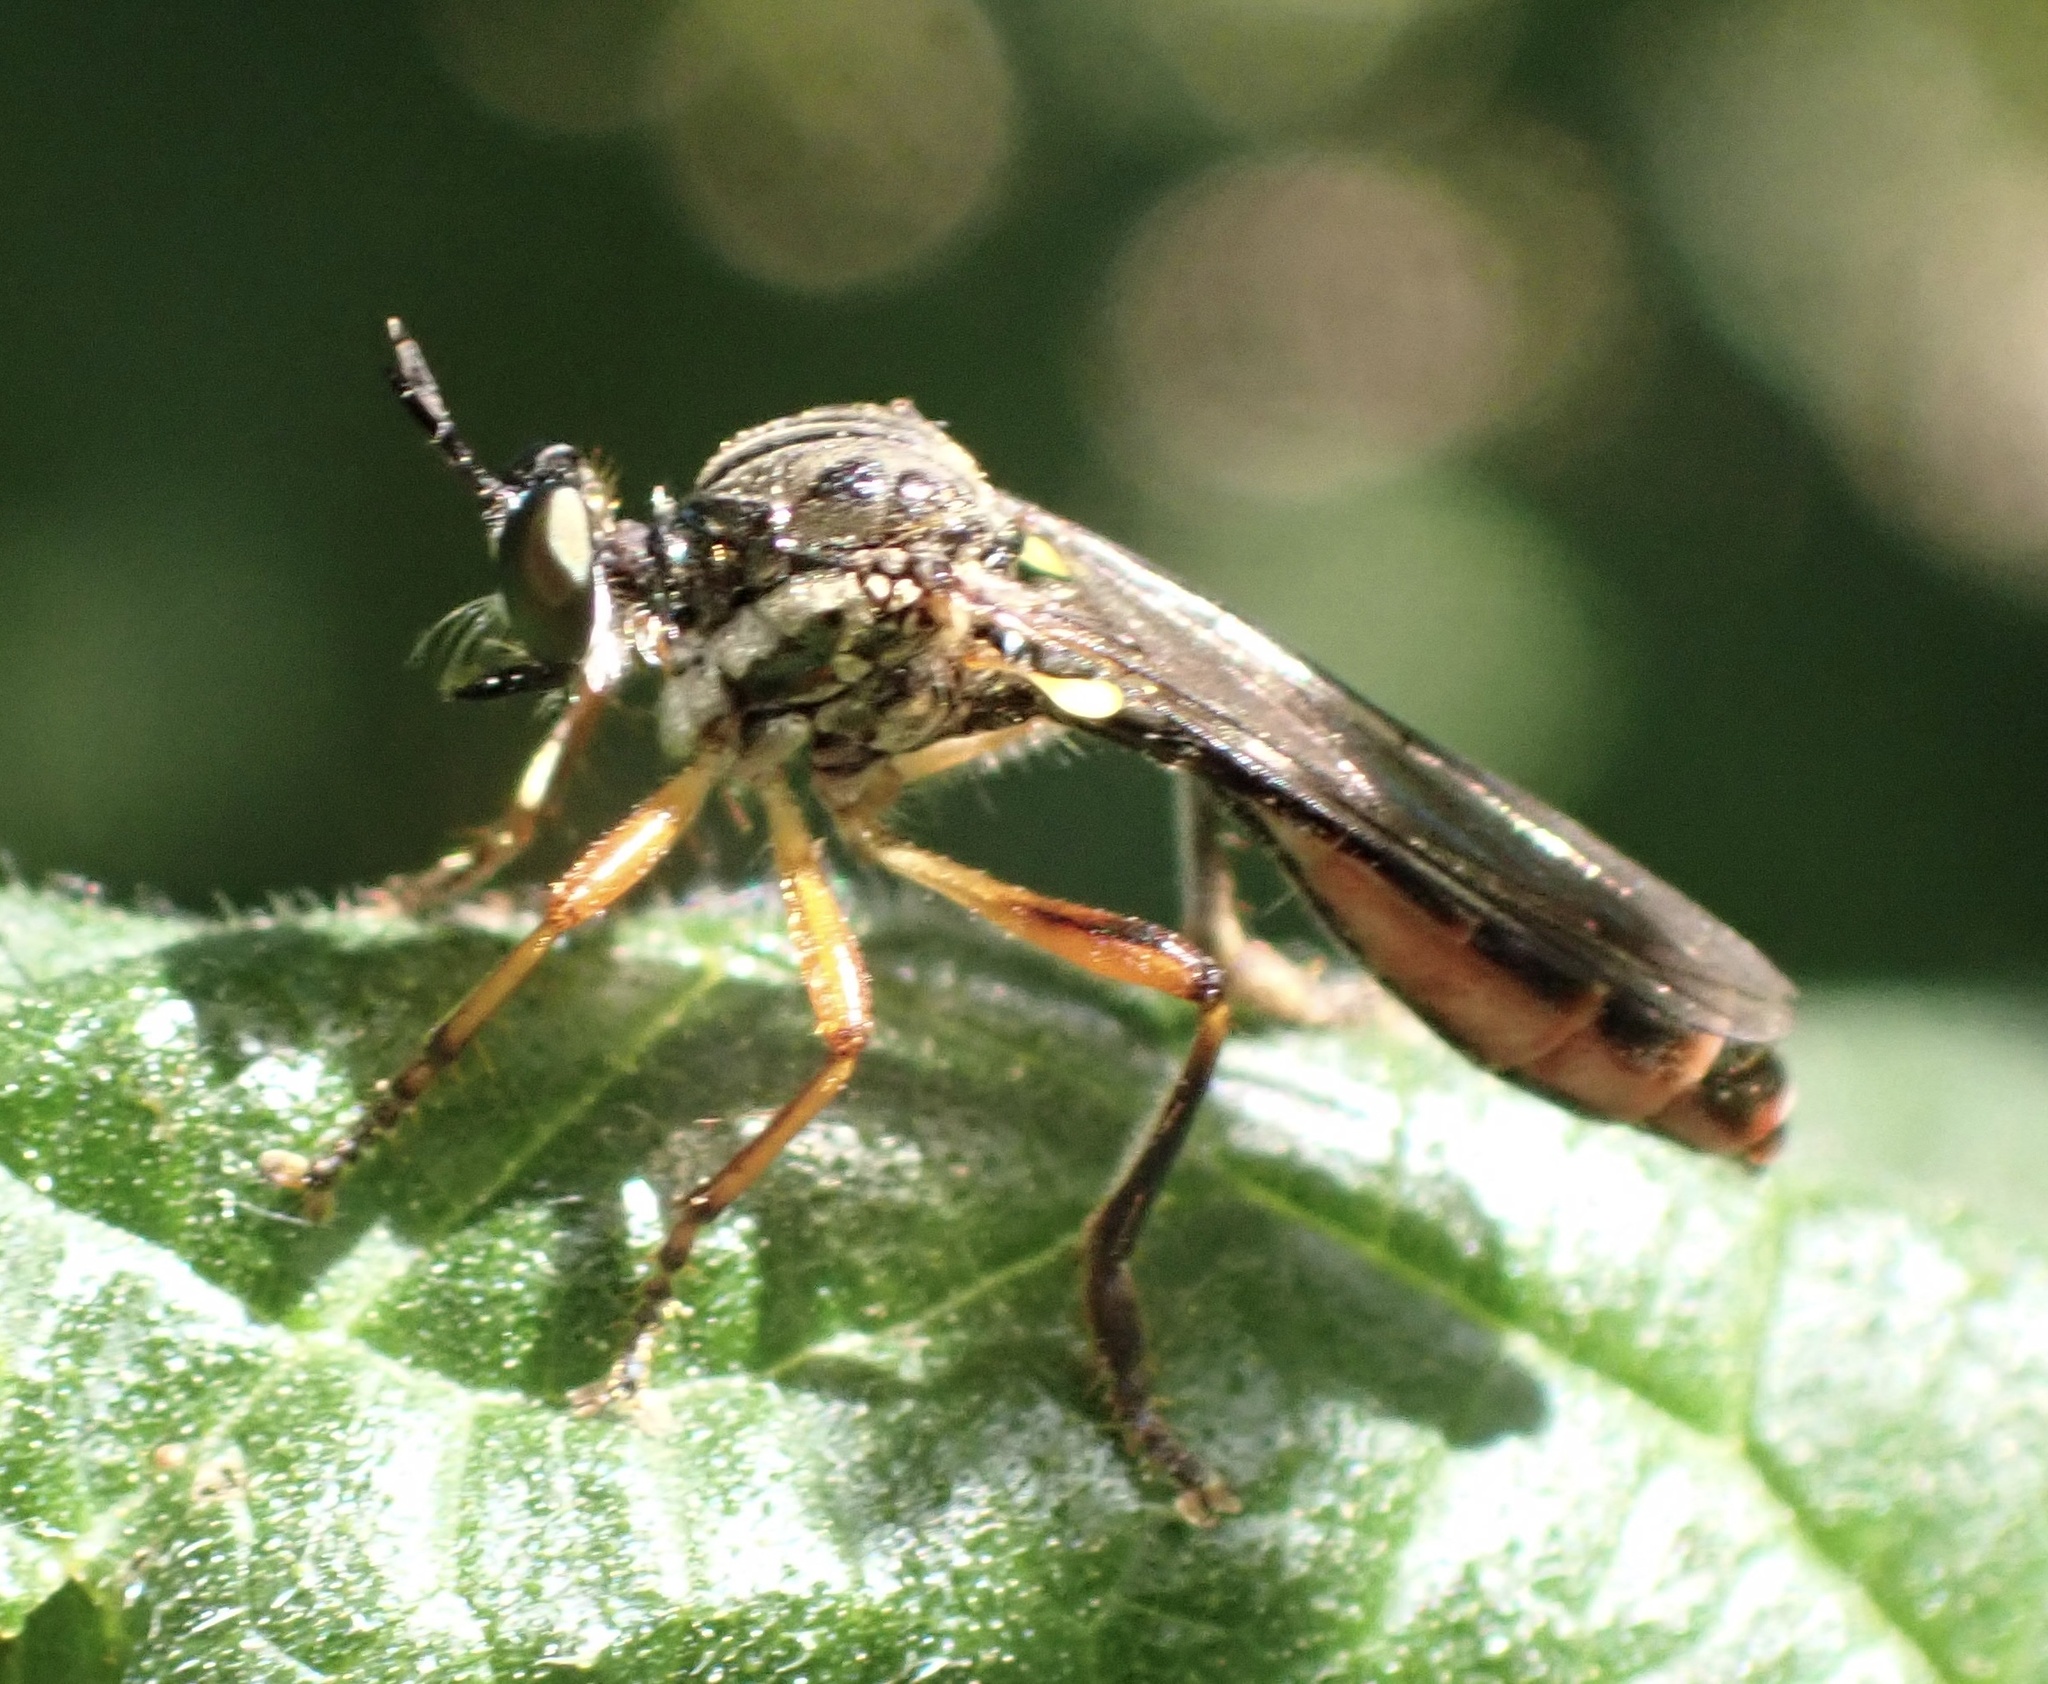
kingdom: Animalia
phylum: Arthropoda
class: Insecta
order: Diptera
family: Asilidae
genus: Dioctria
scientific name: Dioctria hyalipennis
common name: Stripe-legged robberfly
